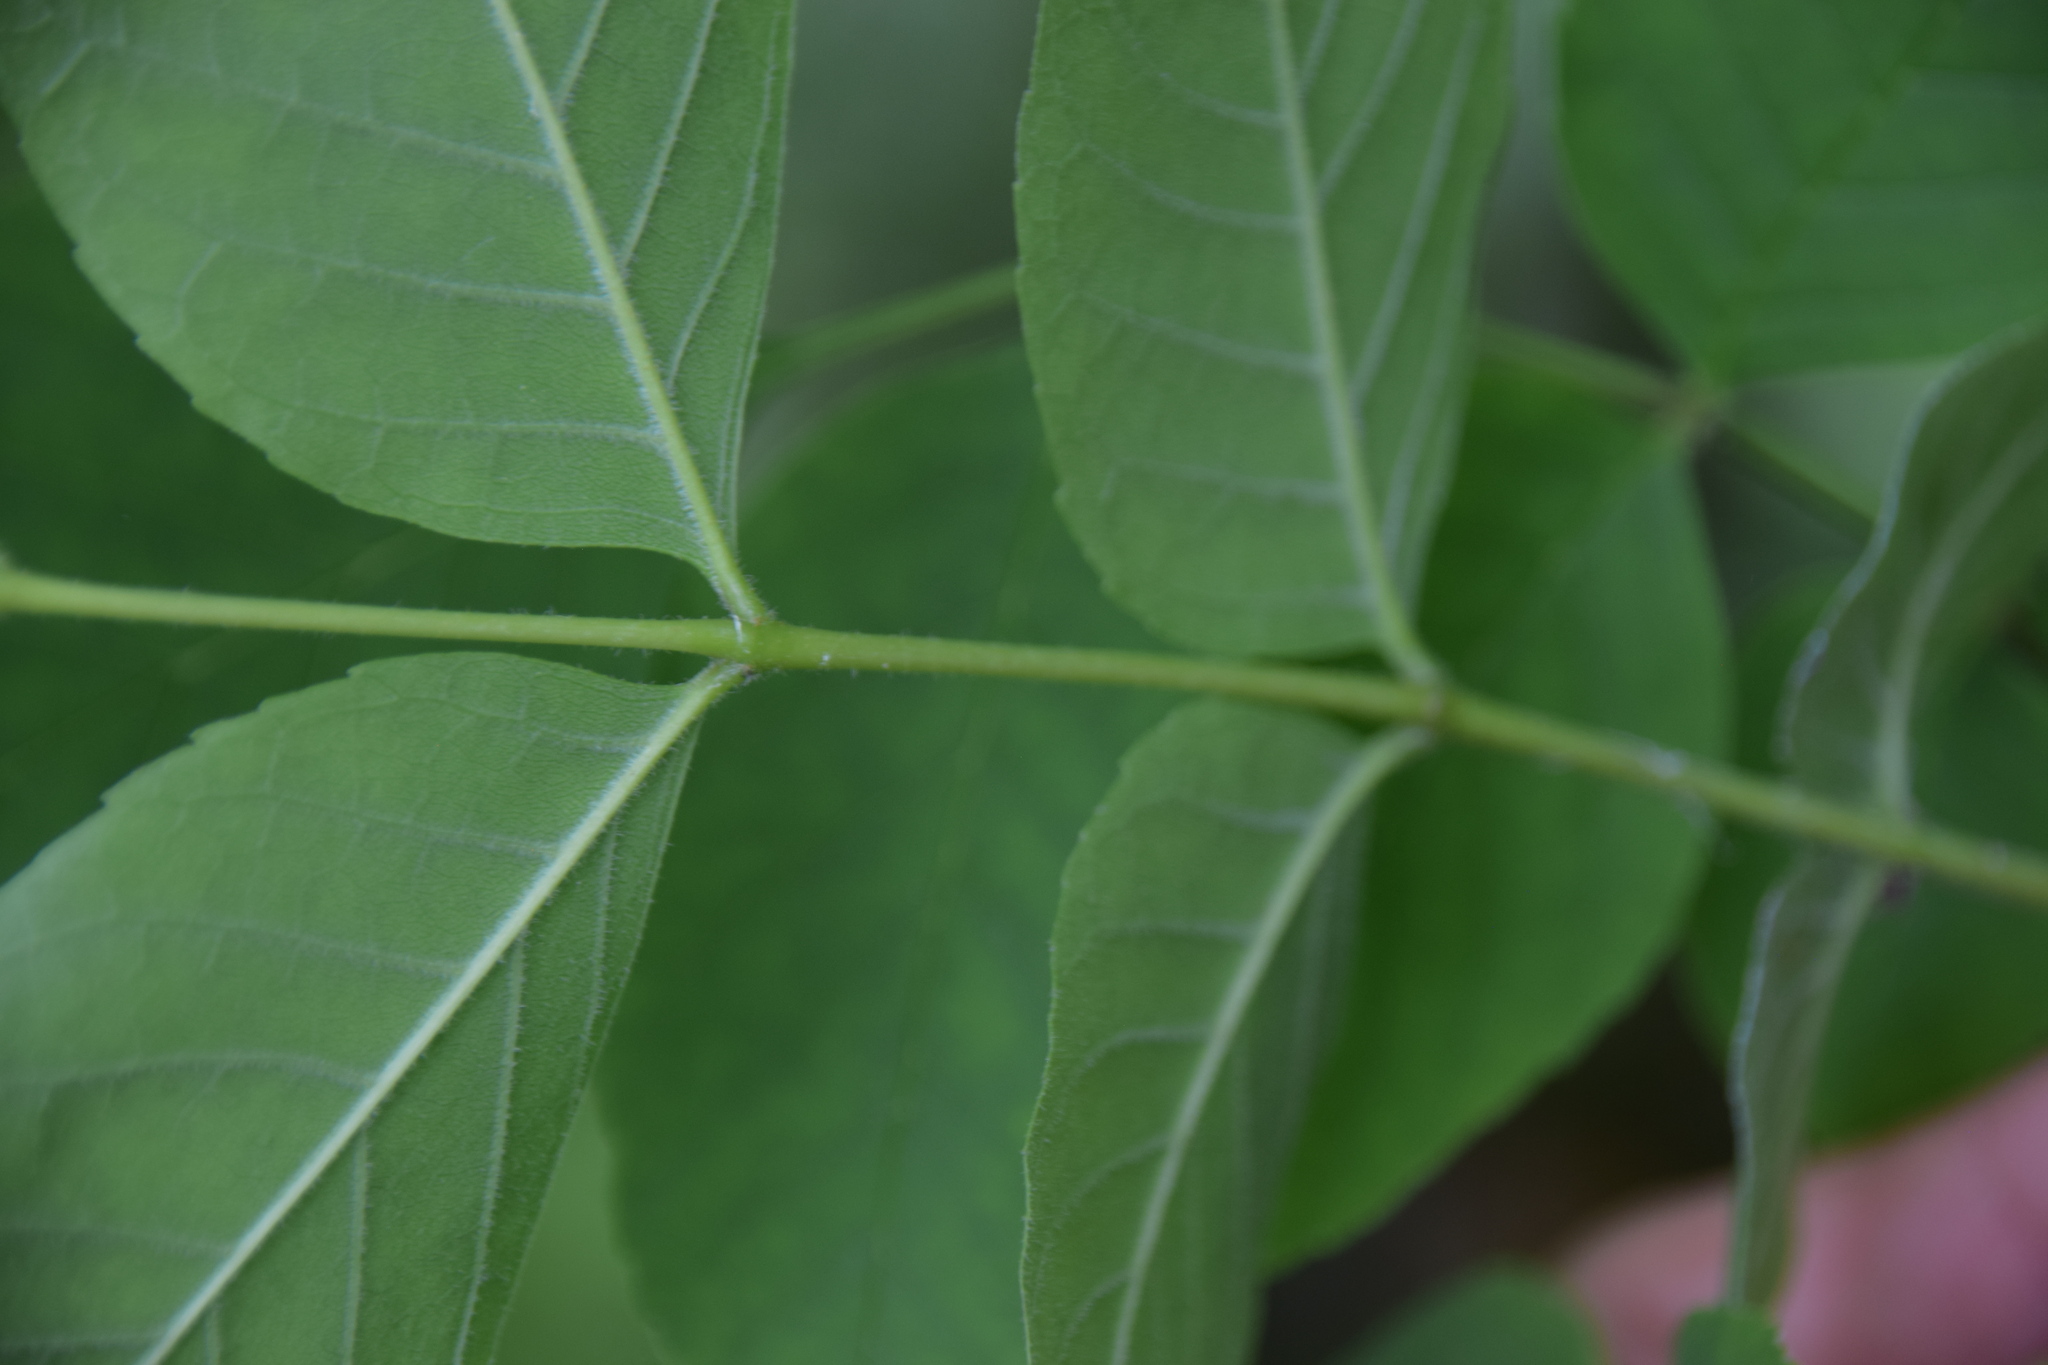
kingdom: Plantae
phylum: Tracheophyta
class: Magnoliopsida
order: Lamiales
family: Oleaceae
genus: Fraxinus
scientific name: Fraxinus pennsylvanica
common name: Green ash
